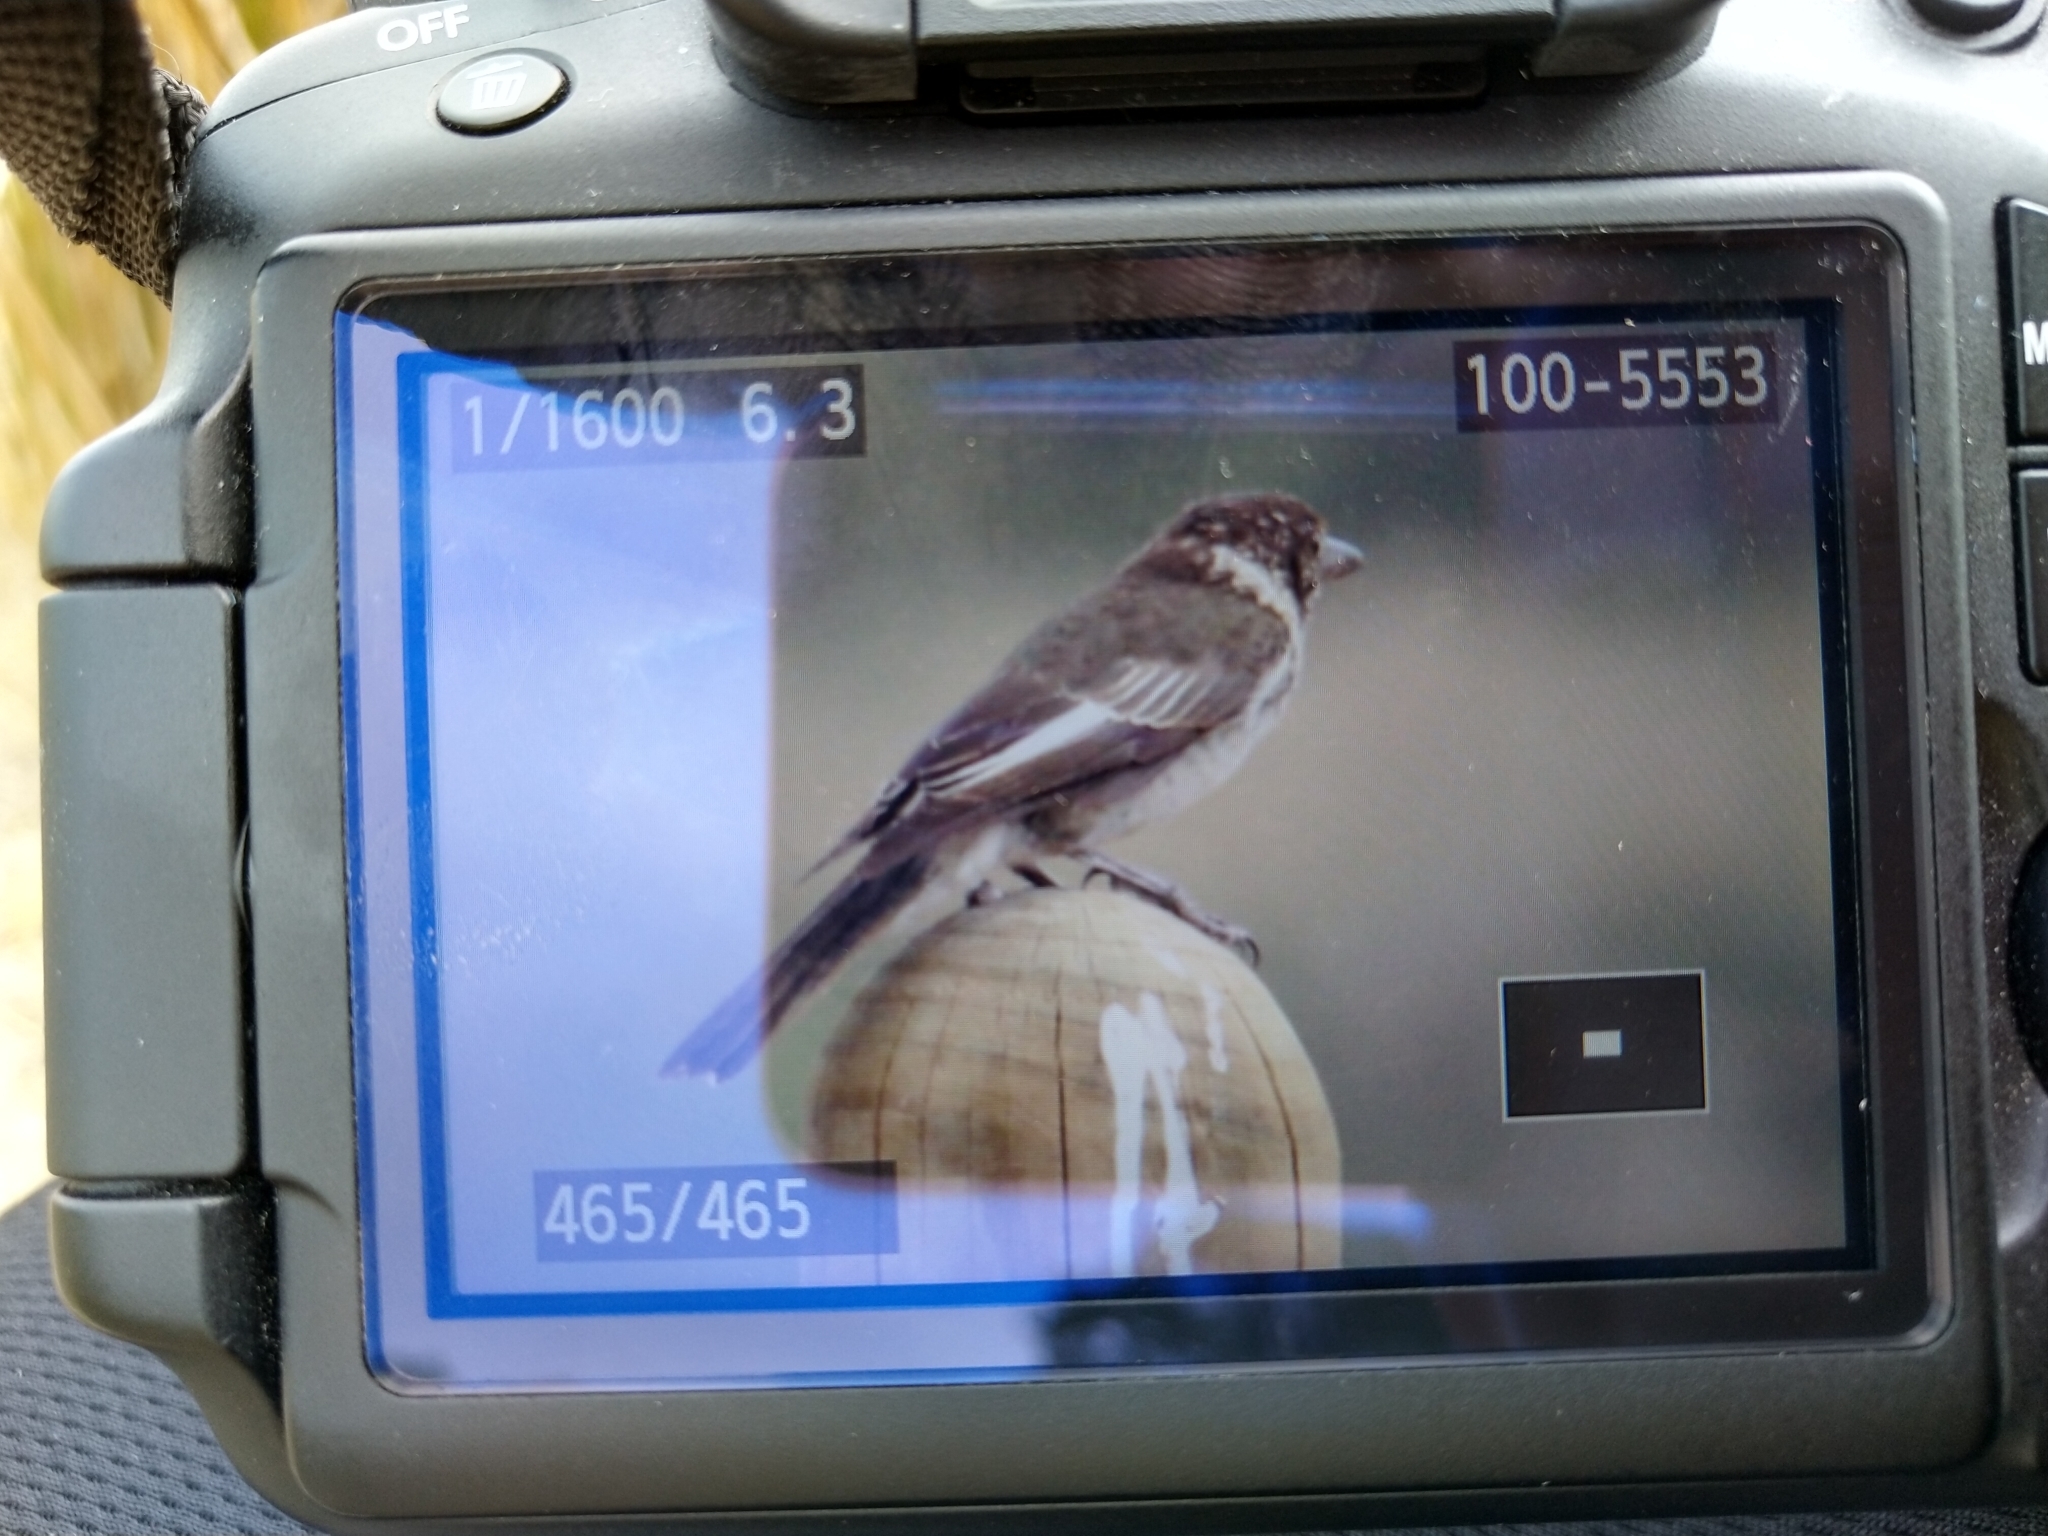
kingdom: Animalia
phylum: Chordata
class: Aves
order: Passeriformes
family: Cracticidae
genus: Cracticus
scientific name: Cracticus torquatus
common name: Grey butcherbird
